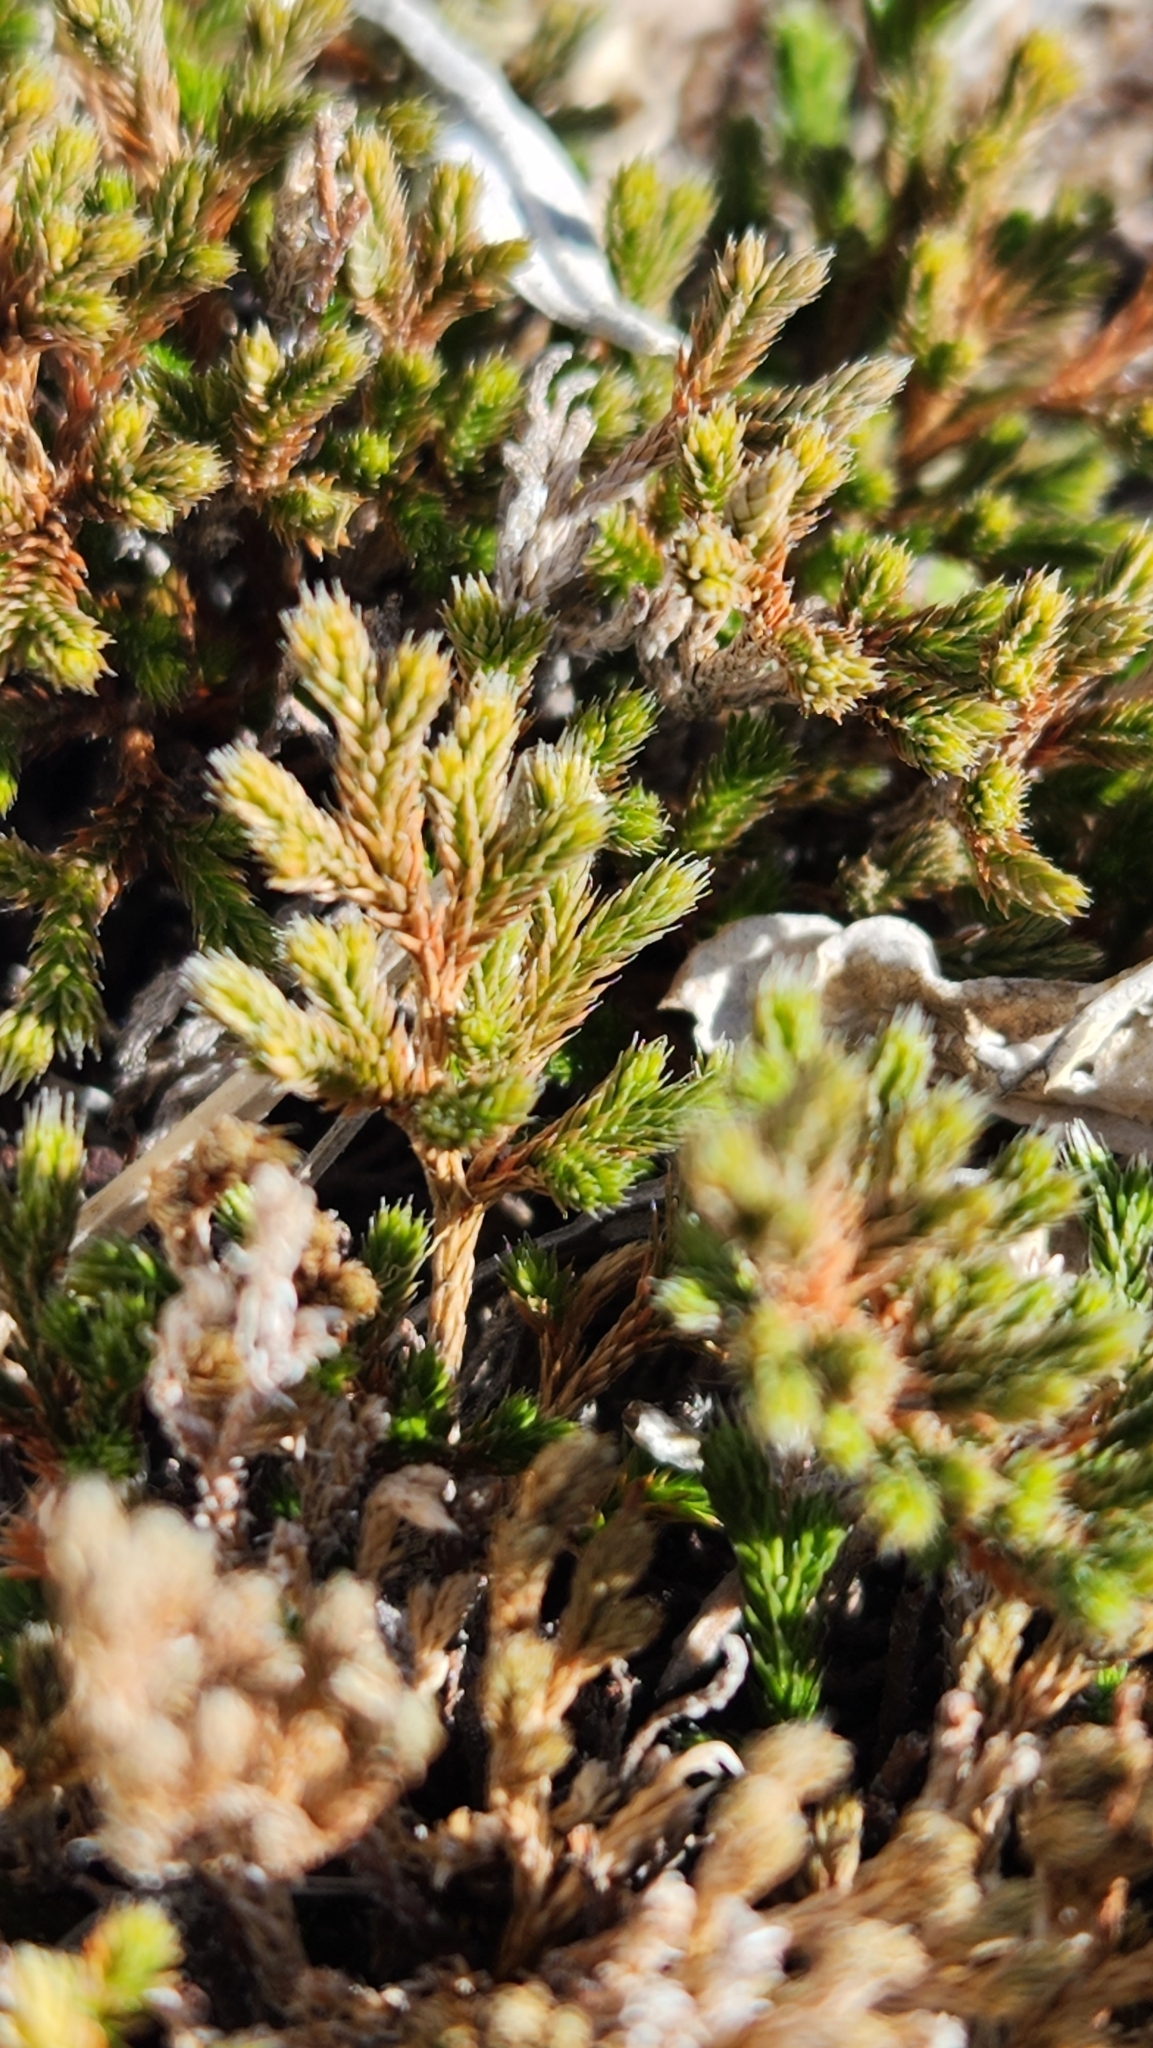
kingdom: Plantae
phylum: Tracheophyta
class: Lycopodiopsida
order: Selaginellales
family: Selaginellaceae
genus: Selaginella
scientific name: Selaginella bigelovii
